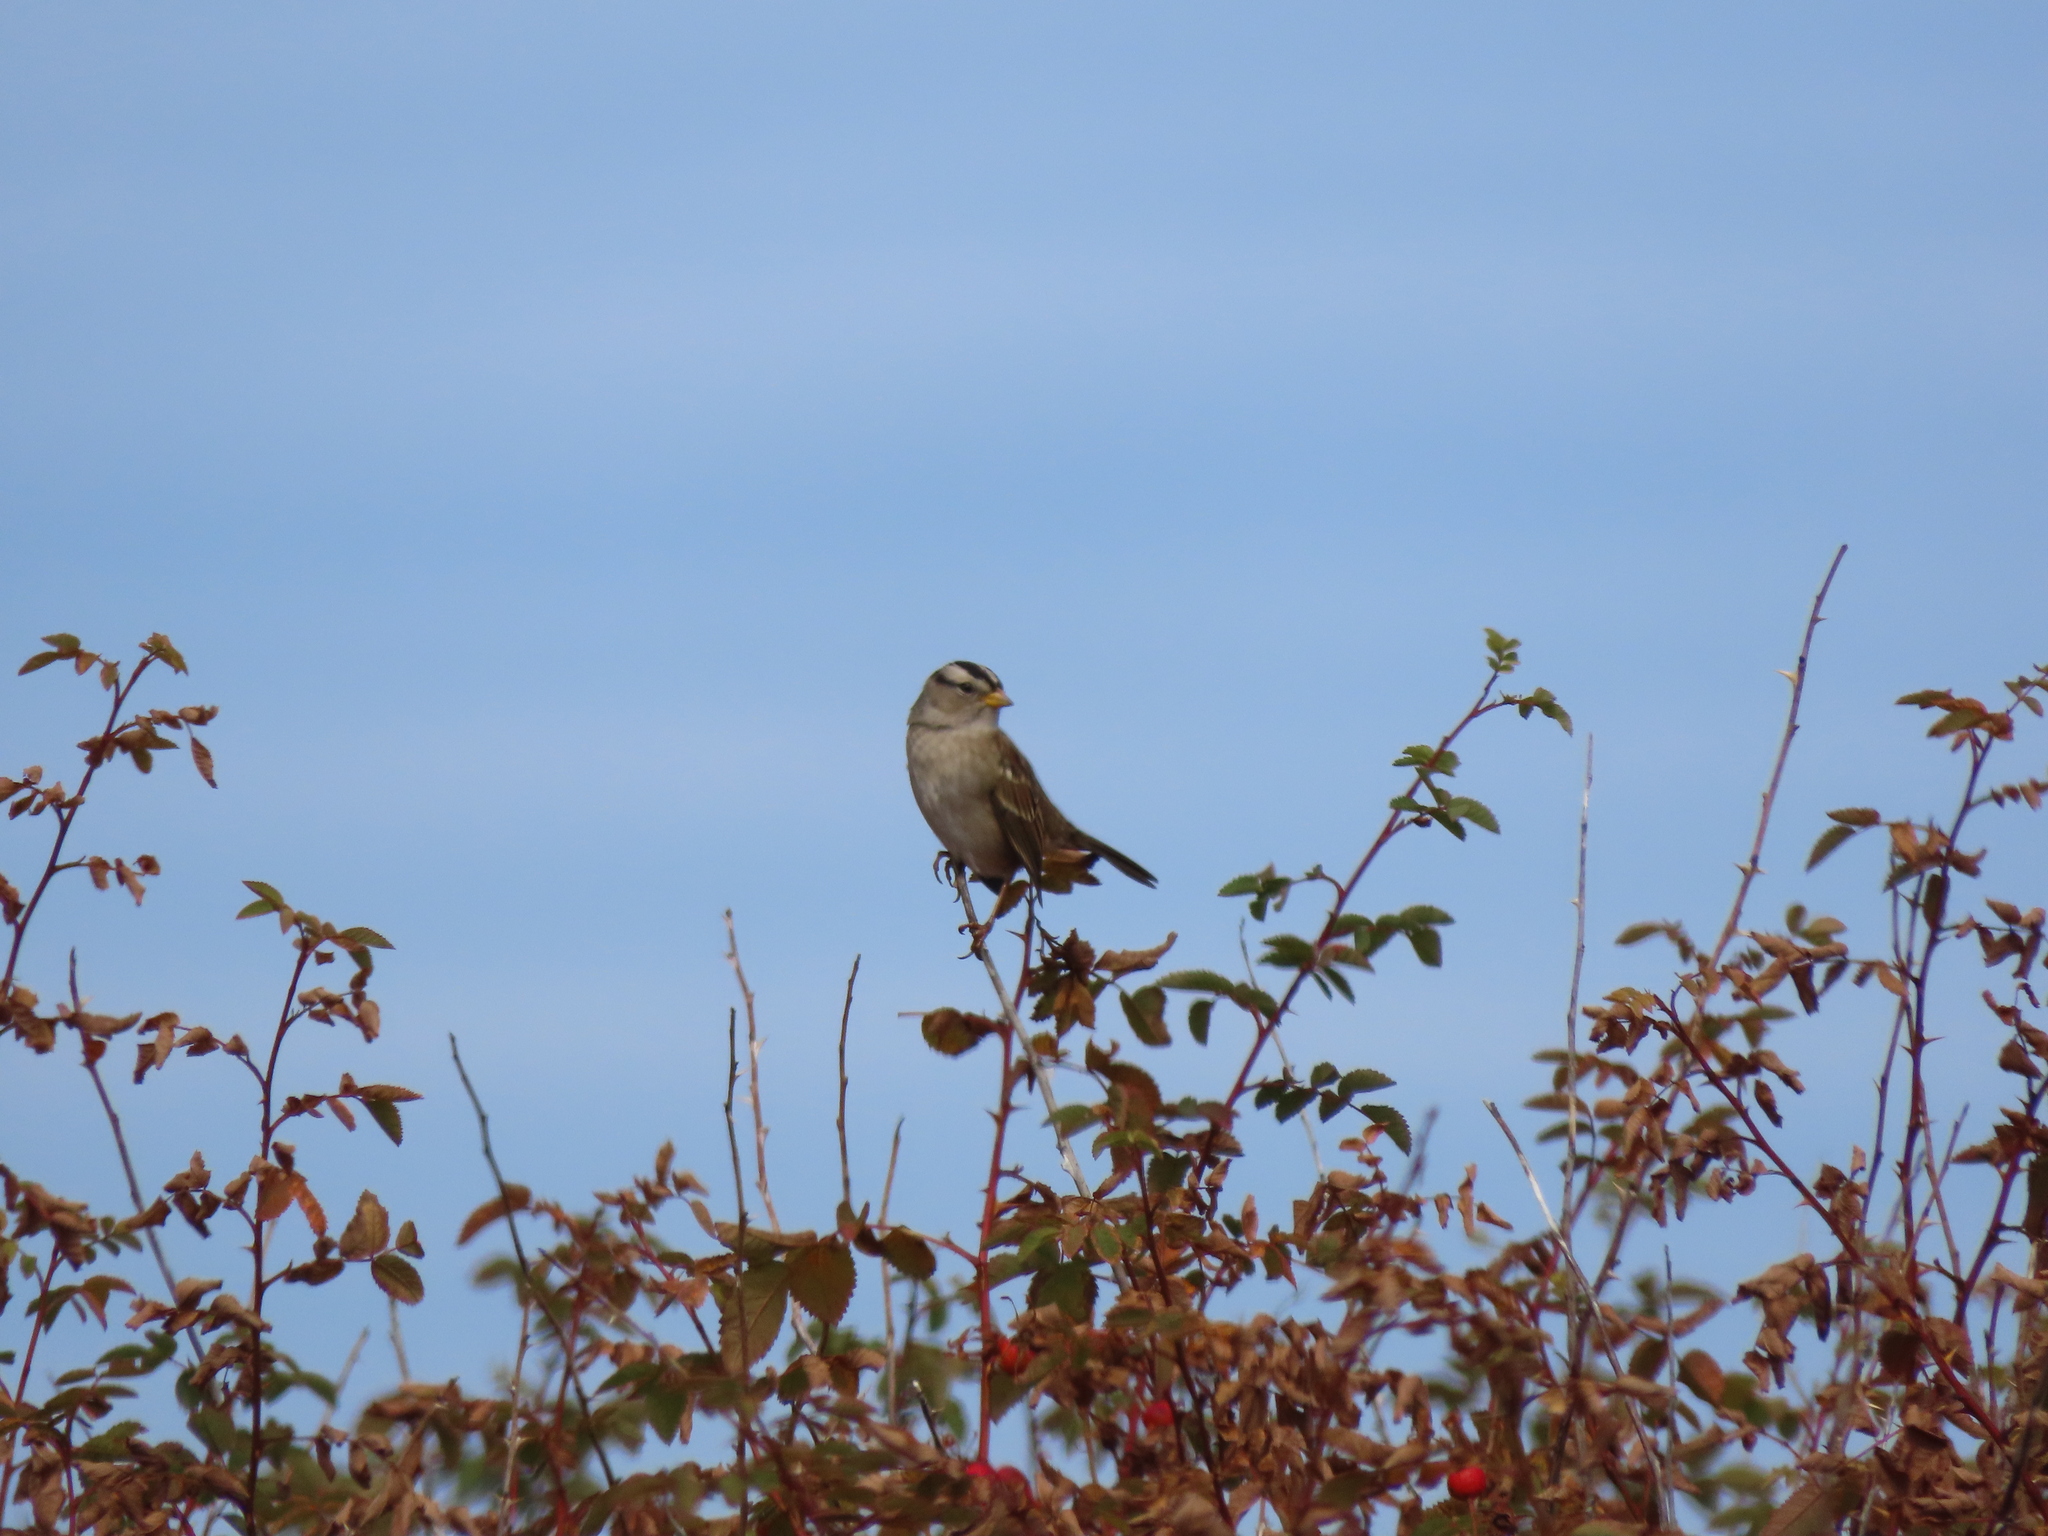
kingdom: Animalia
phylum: Chordata
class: Aves
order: Passeriformes
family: Passerellidae
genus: Zonotrichia
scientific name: Zonotrichia leucophrys
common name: White-crowned sparrow
